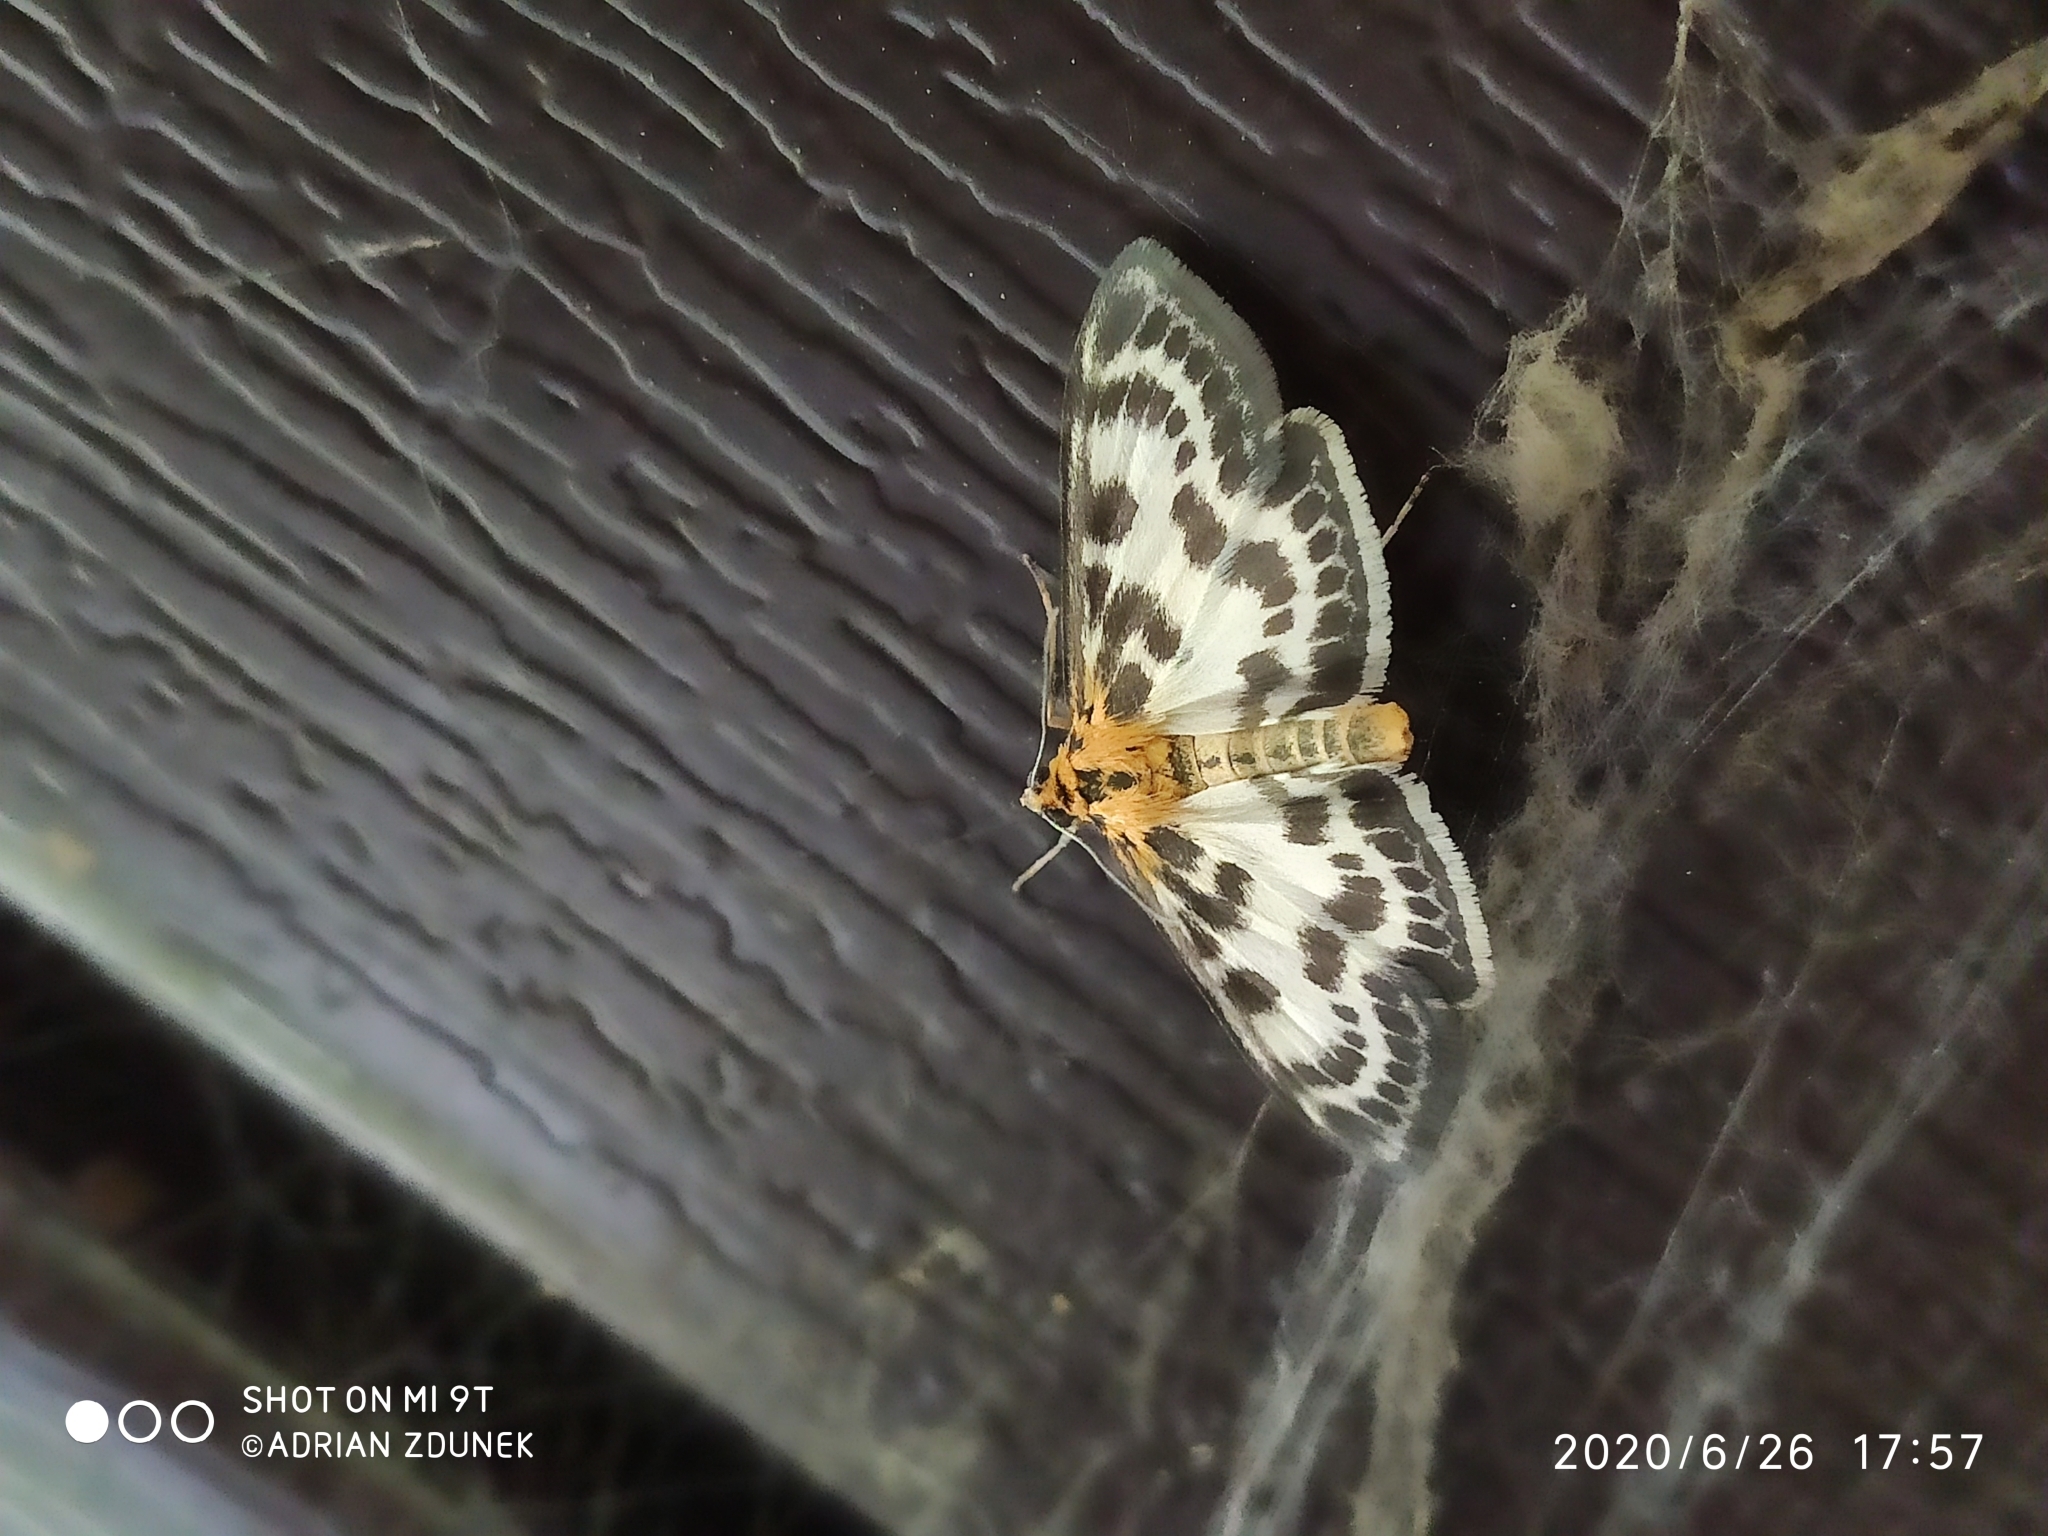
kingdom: Animalia
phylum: Arthropoda
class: Insecta
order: Lepidoptera
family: Crambidae
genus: Anania
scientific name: Anania hortulata
